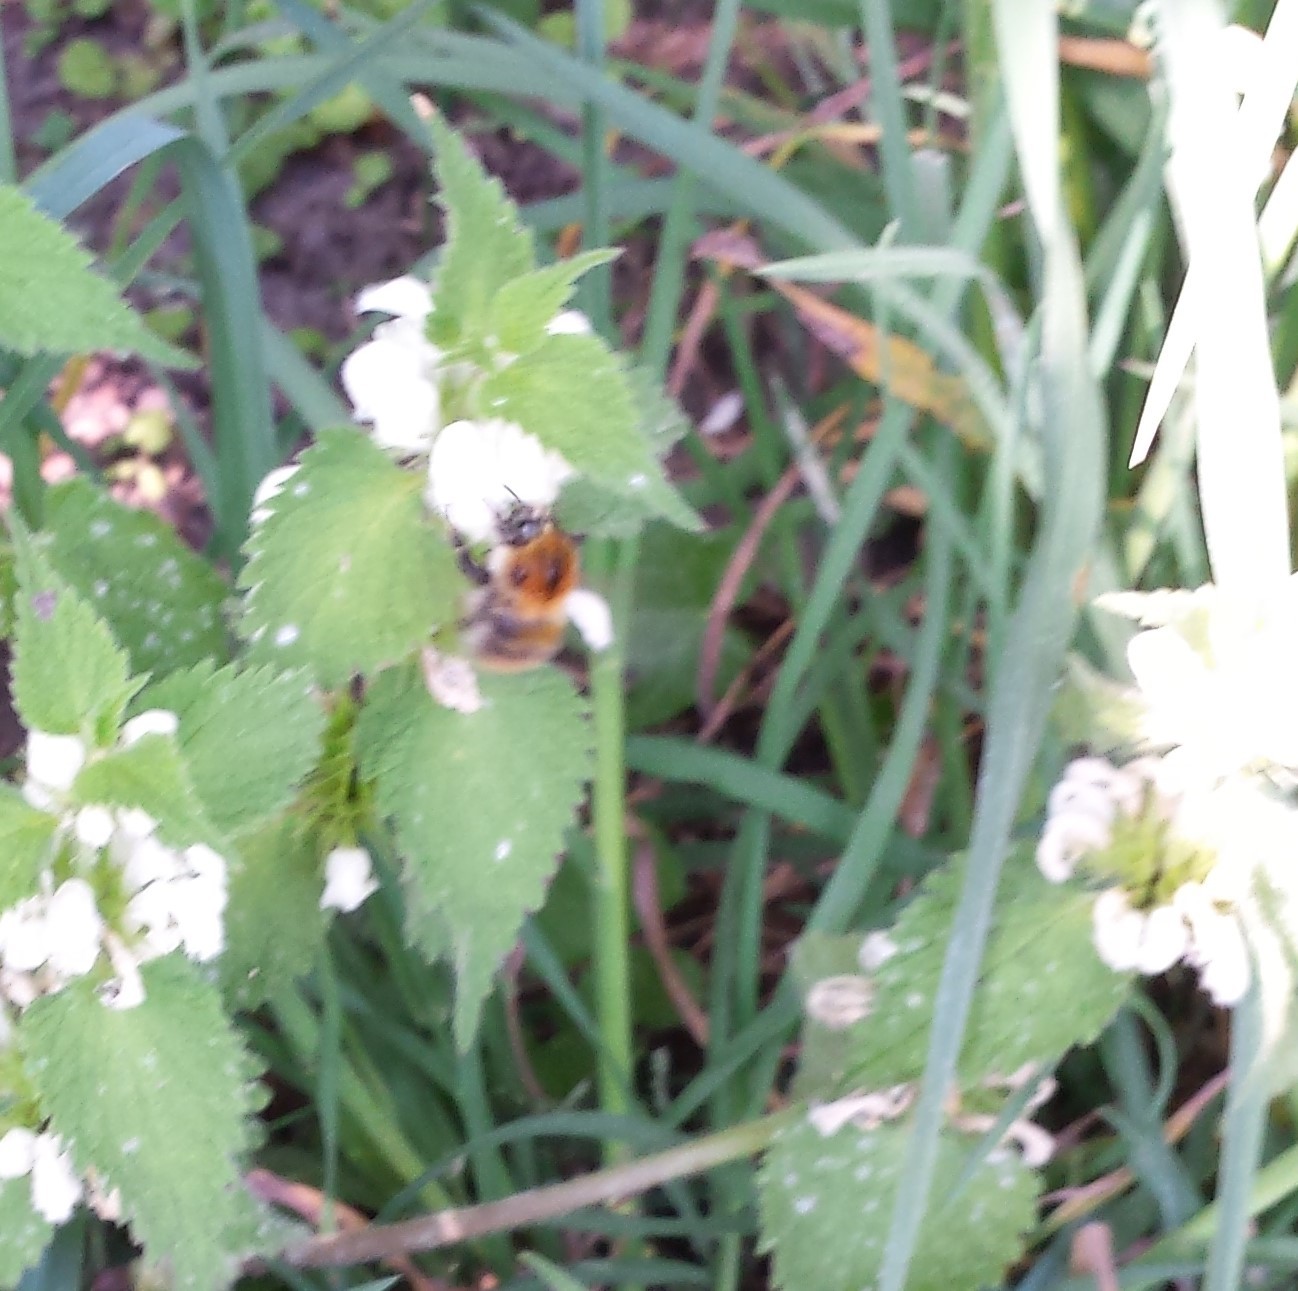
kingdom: Animalia
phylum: Arthropoda
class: Insecta
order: Hymenoptera
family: Apidae
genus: Bombus
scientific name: Bombus pascuorum
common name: Common carder bee
